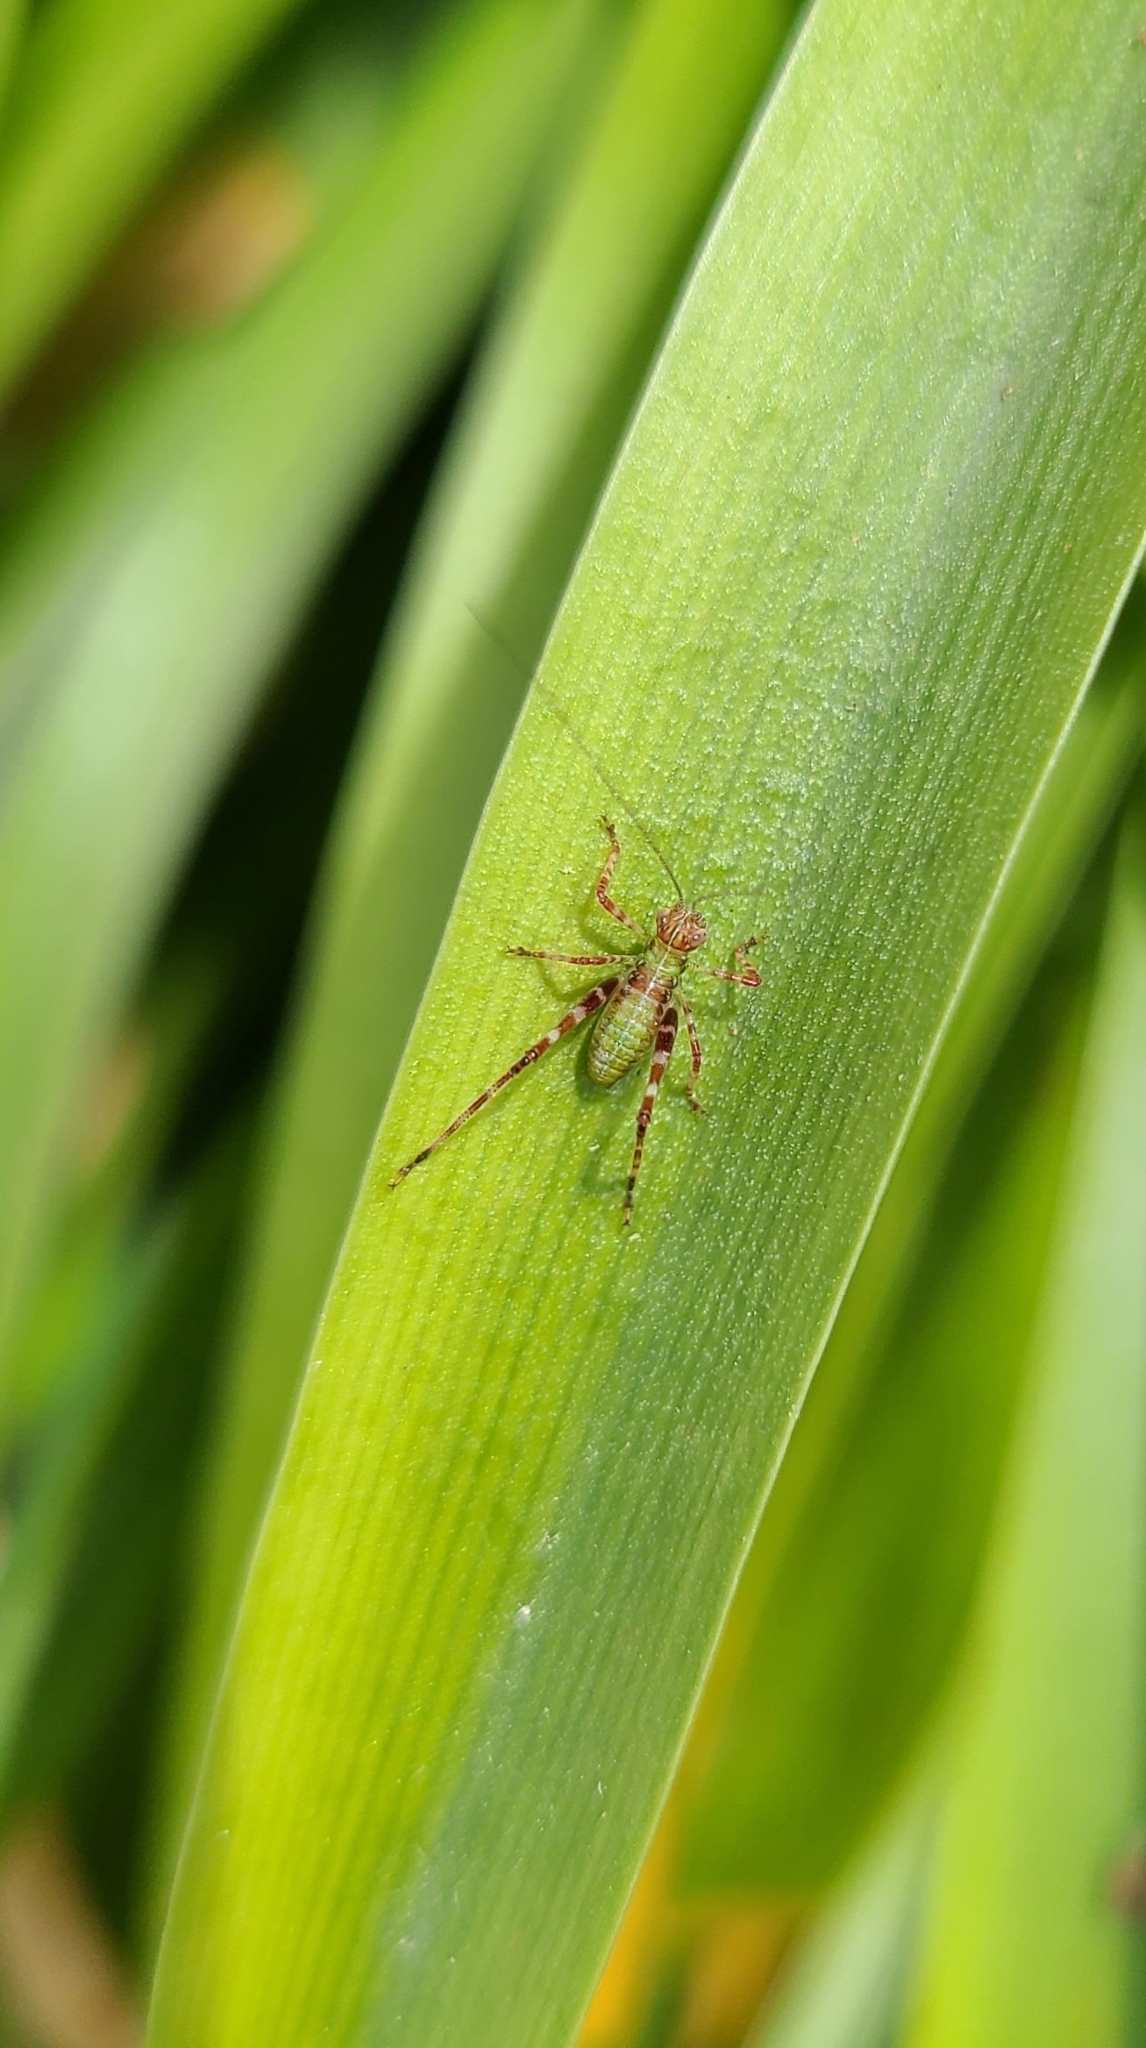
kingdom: Animalia
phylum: Arthropoda
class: Insecta
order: Orthoptera
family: Tettigoniidae
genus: Caedicia
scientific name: Caedicia simplex
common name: Common garden katydid
